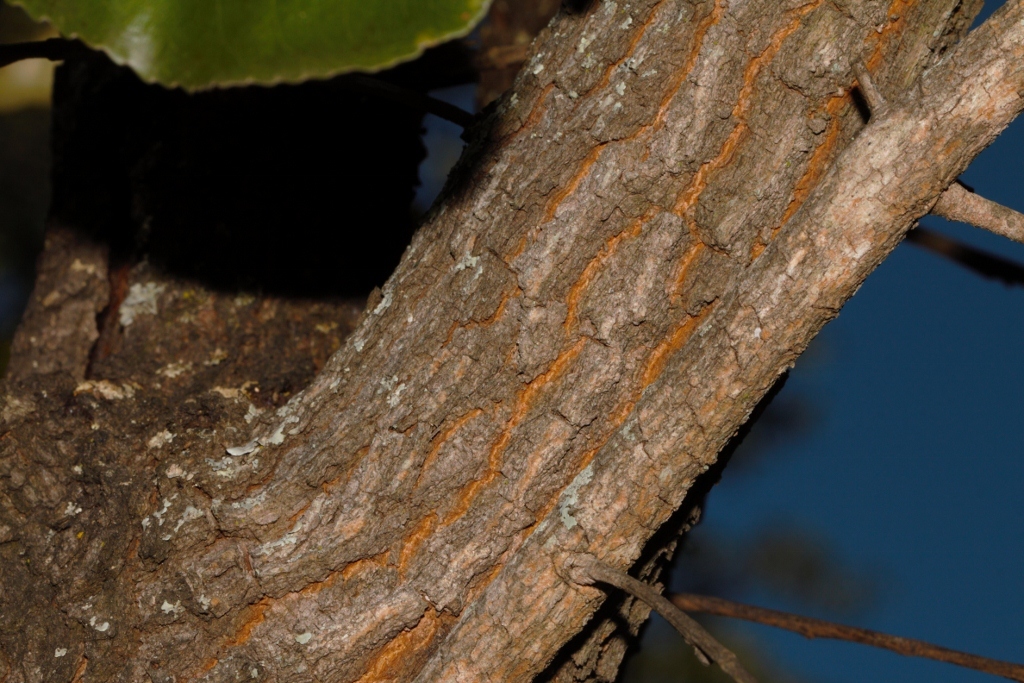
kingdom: Plantae
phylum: Tracheophyta
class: Magnoliopsida
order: Malpighiales
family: Ochnaceae
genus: Ochna
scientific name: Ochna schweinfurthiana
